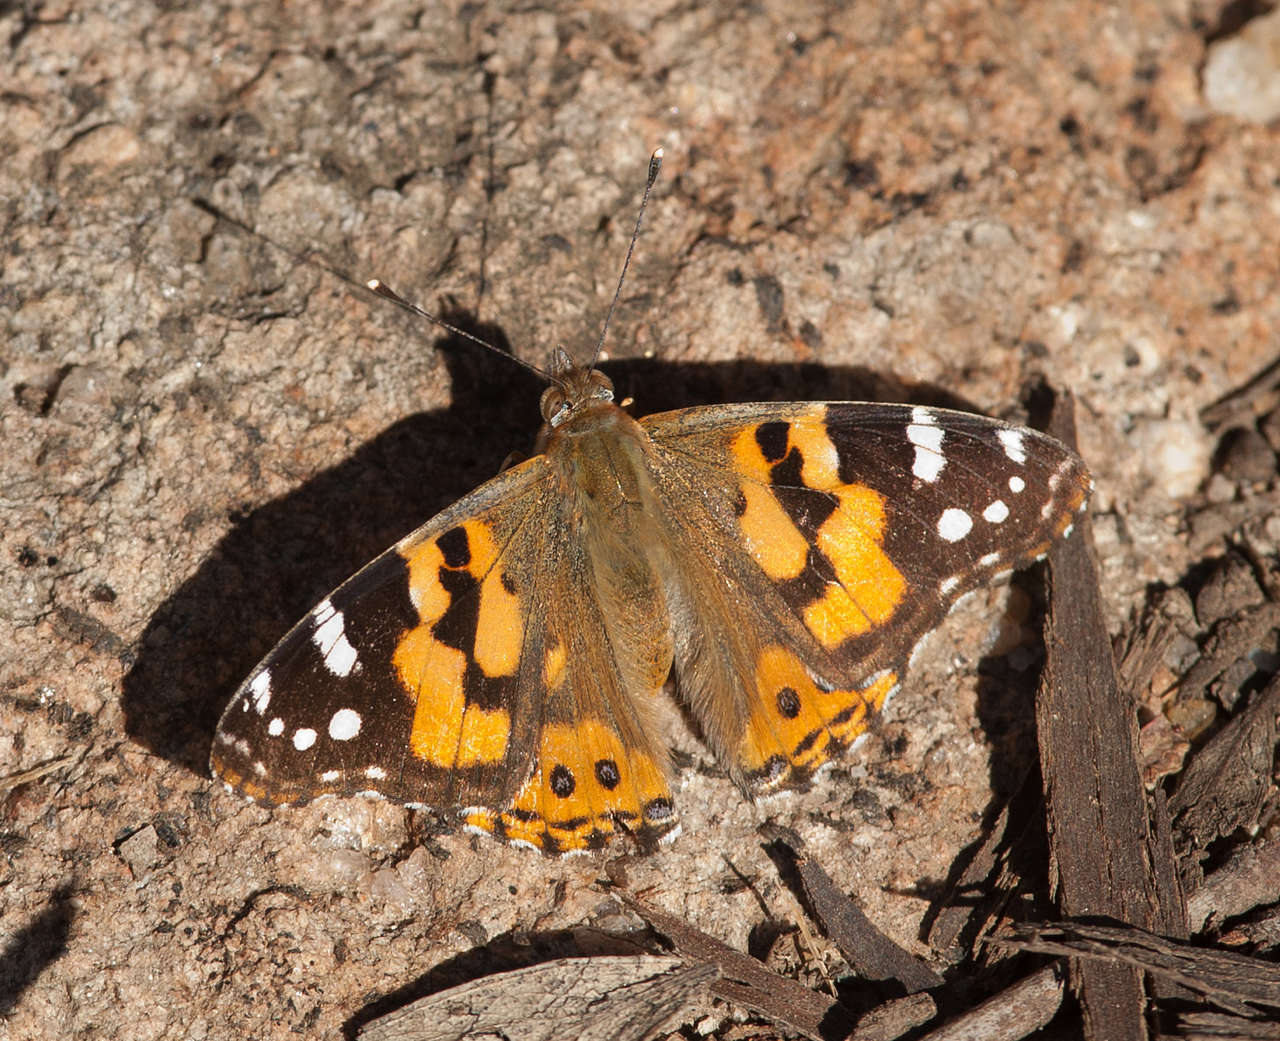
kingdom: Animalia
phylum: Arthropoda
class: Insecta
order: Lepidoptera
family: Nymphalidae
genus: Vanessa
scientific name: Vanessa kershawi
